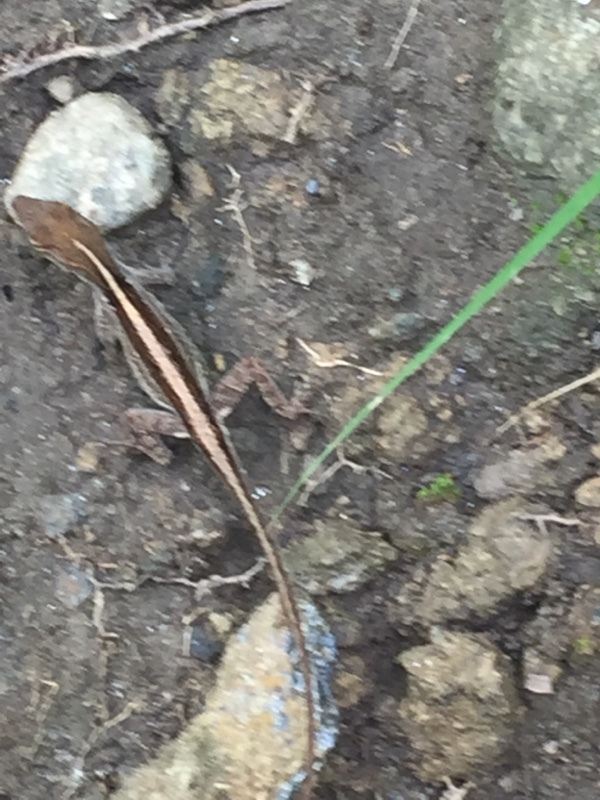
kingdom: Animalia
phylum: Chordata
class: Squamata
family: Dactyloidae
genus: Anolis
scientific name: Anolis sagrei
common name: Brown anole
